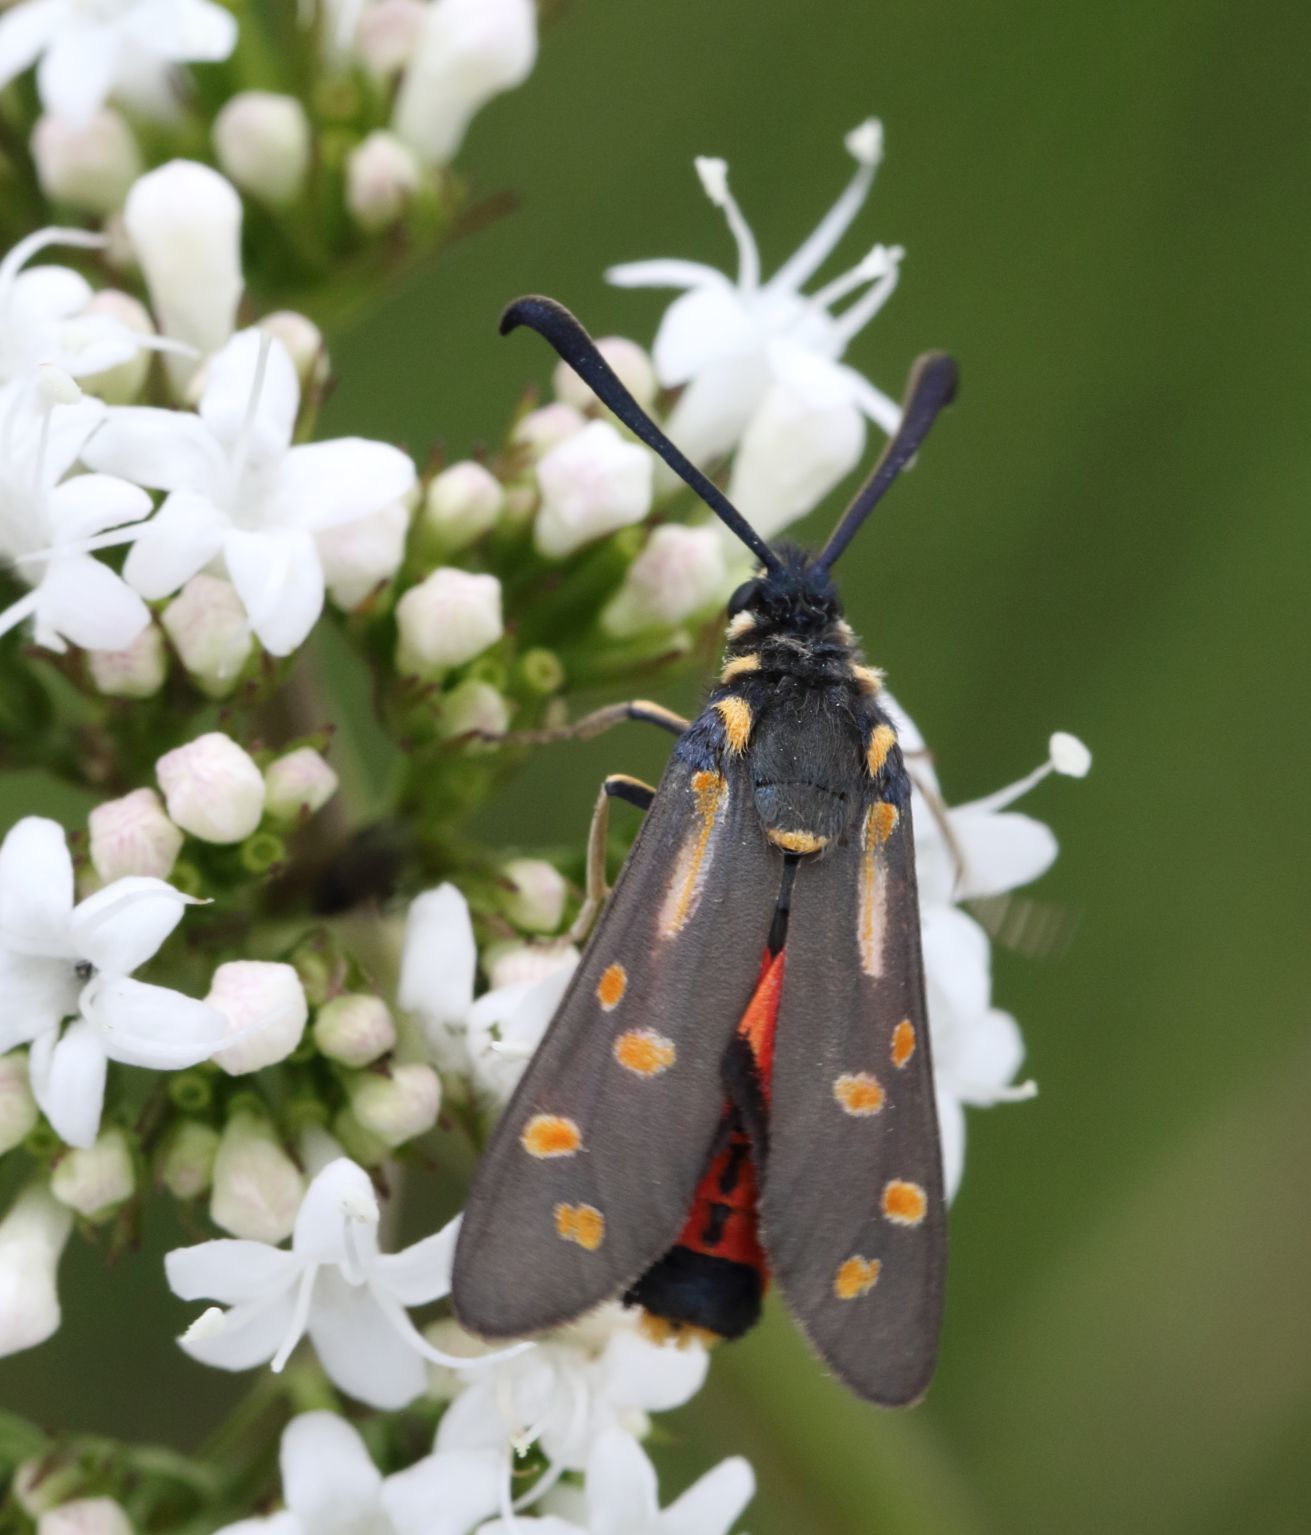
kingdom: Animalia
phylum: Arthropoda
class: Insecta
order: Lepidoptera
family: Zygaenidae
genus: Neurosymploca
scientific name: Neurosymploca concinna
